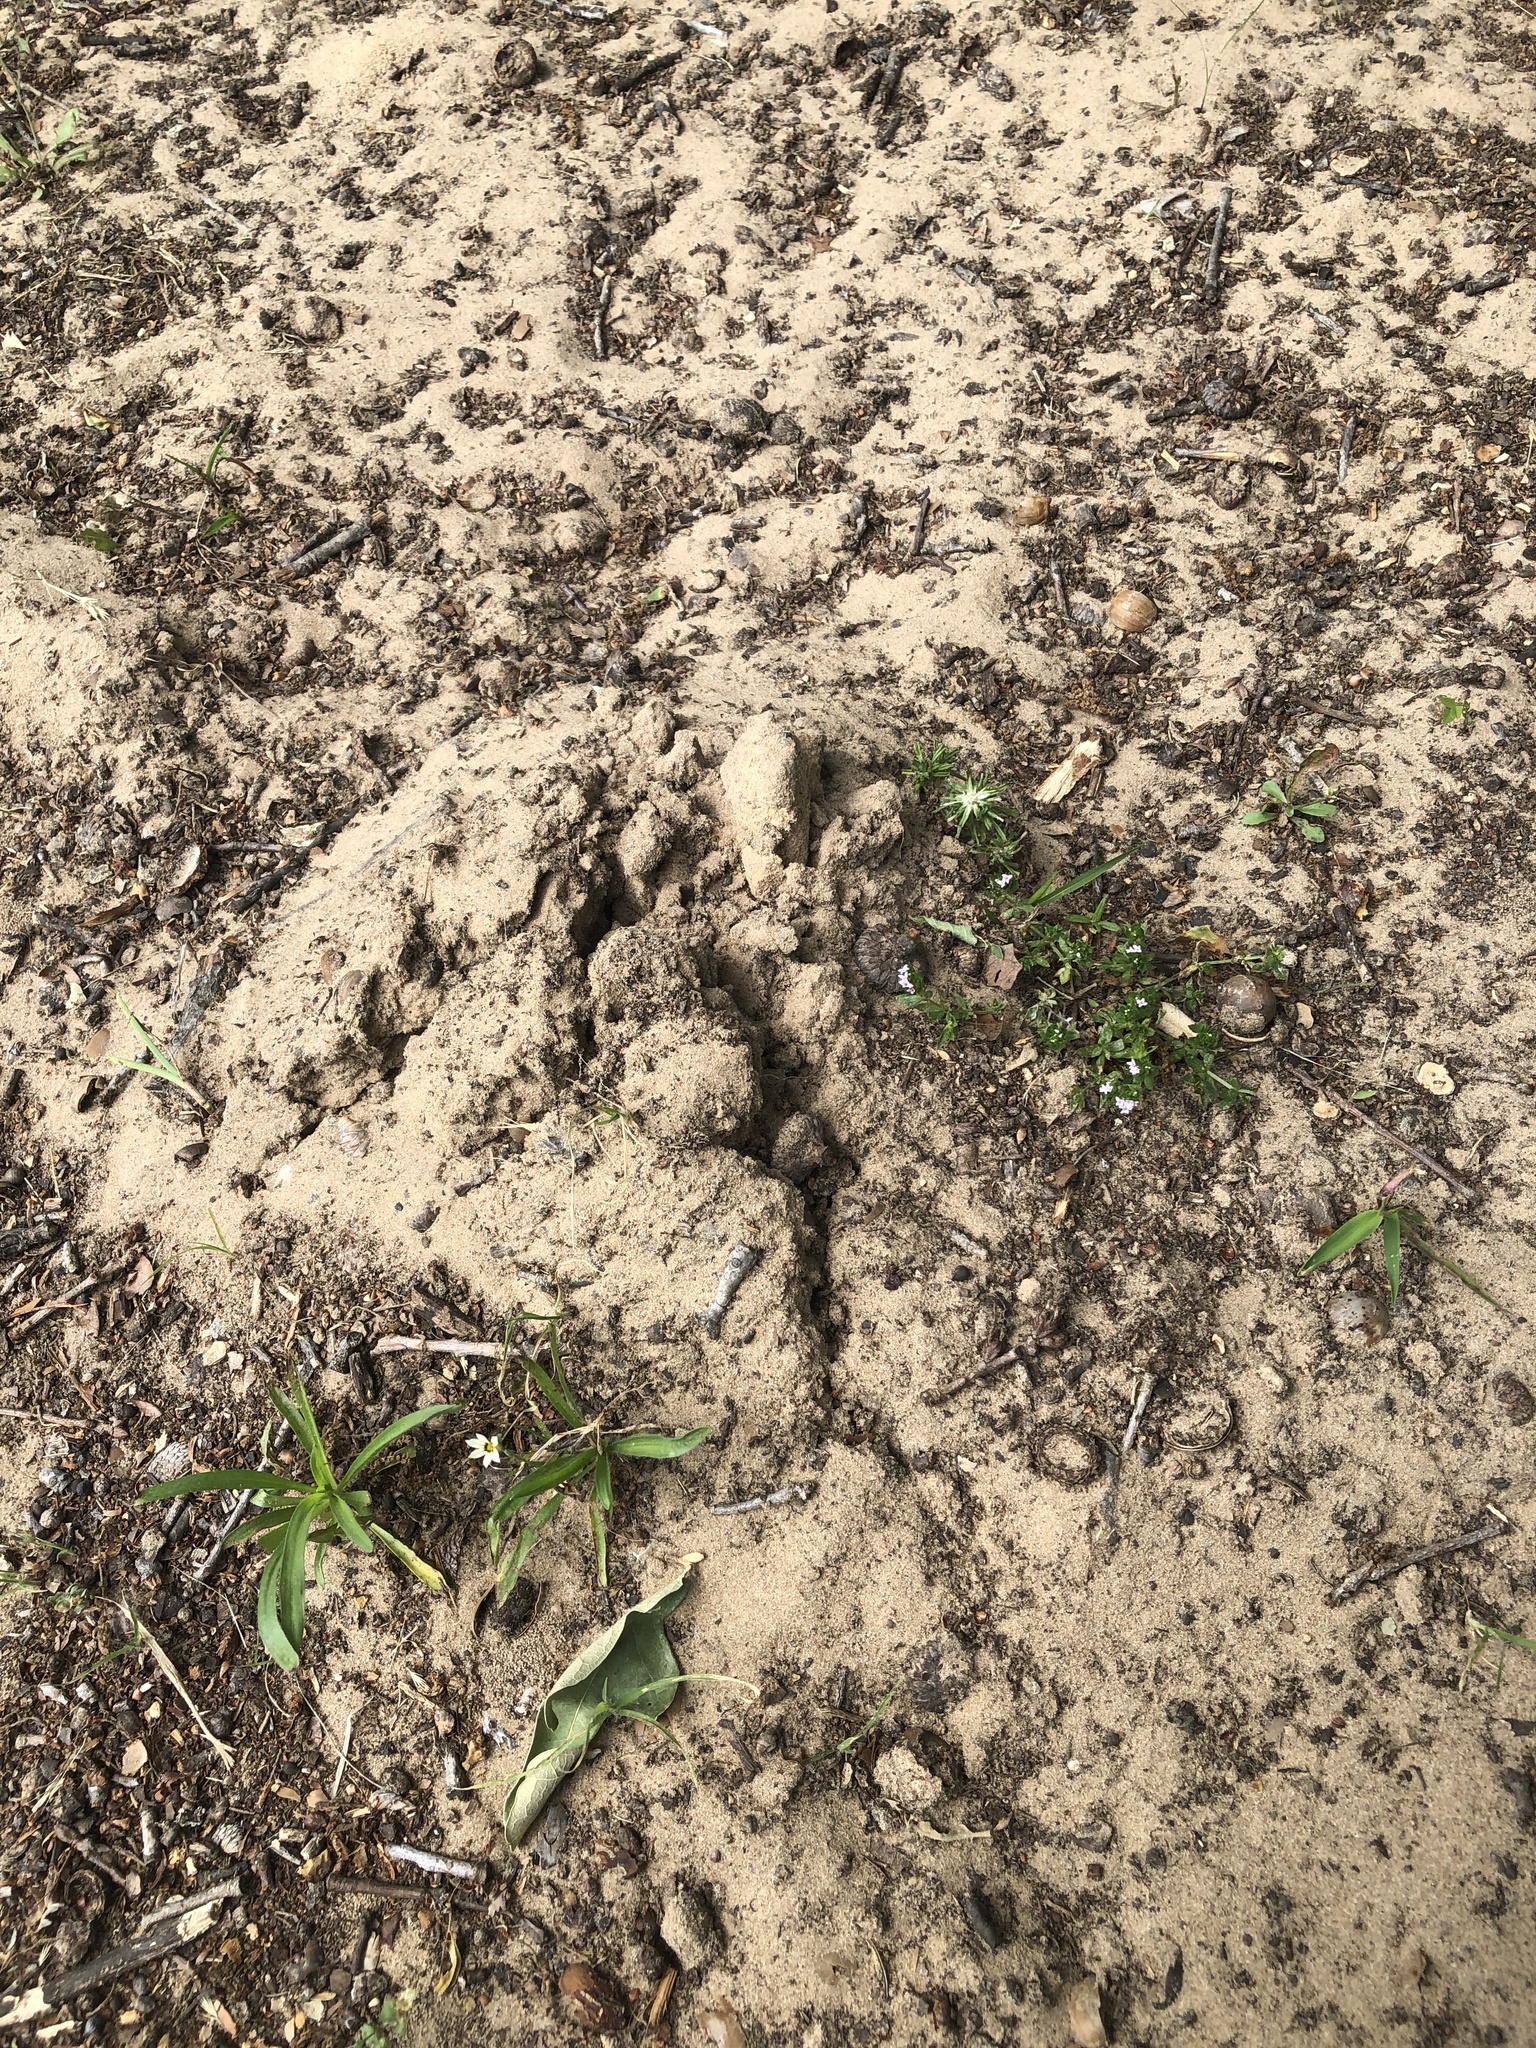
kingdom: Animalia
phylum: Chordata
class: Mammalia
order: Soricomorpha
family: Talpidae
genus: Scalopus
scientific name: Scalopus aquaticus
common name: Eastern mole
